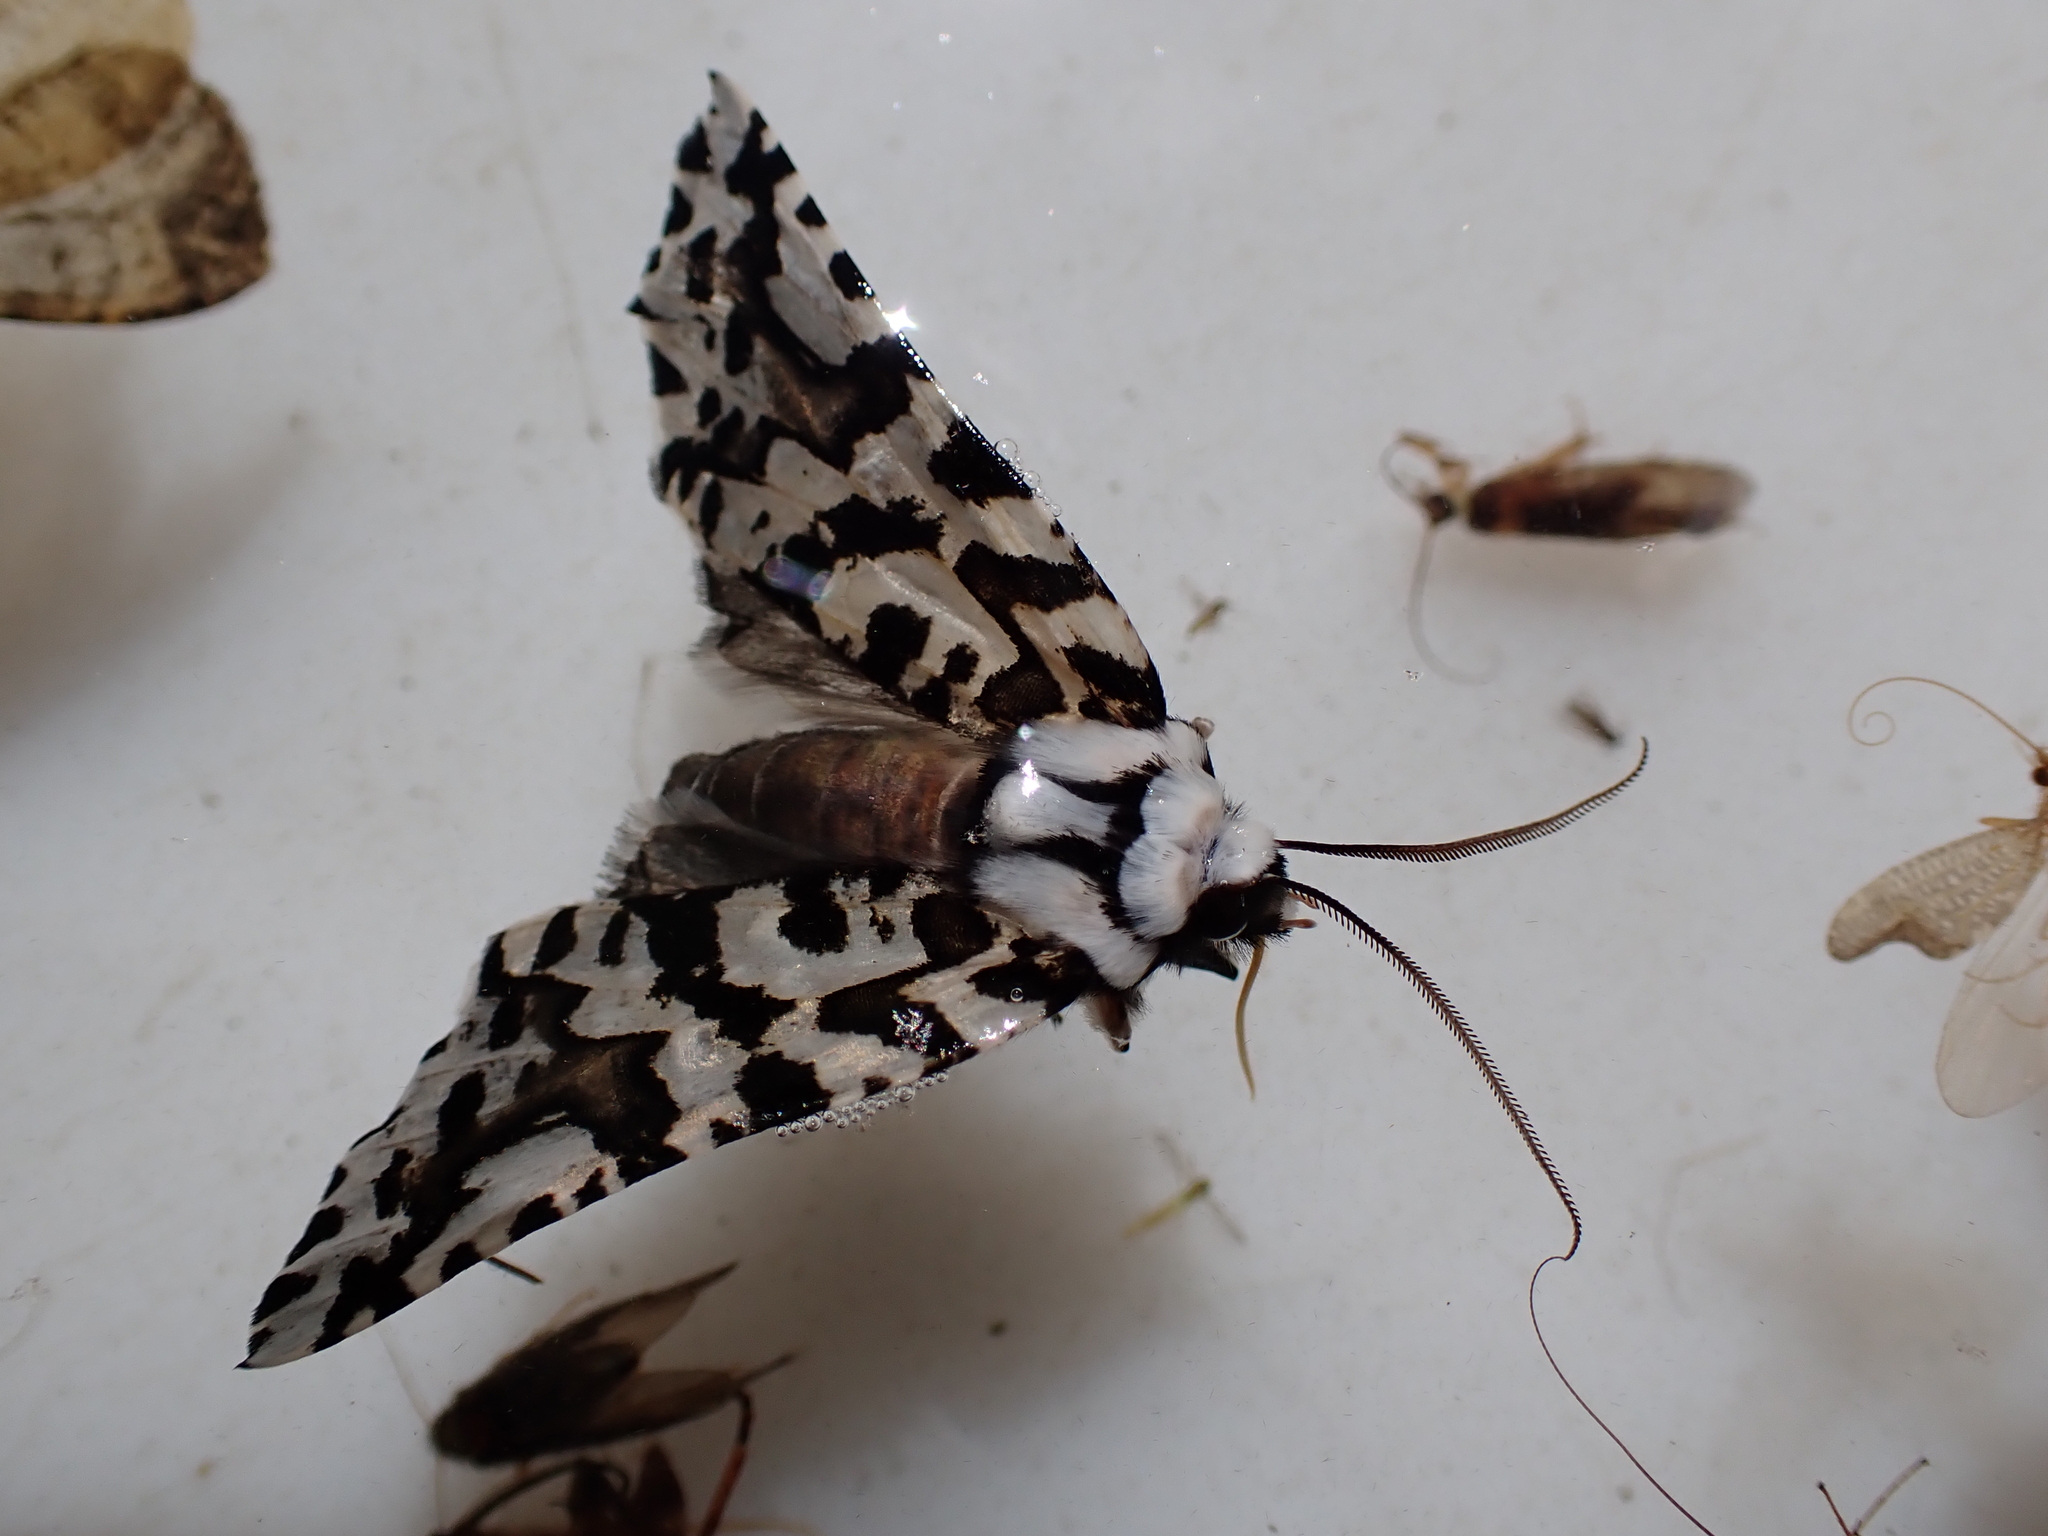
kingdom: Animalia
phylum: Arthropoda
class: Insecta
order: Lepidoptera
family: Geometridae
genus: Declana
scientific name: Declana
